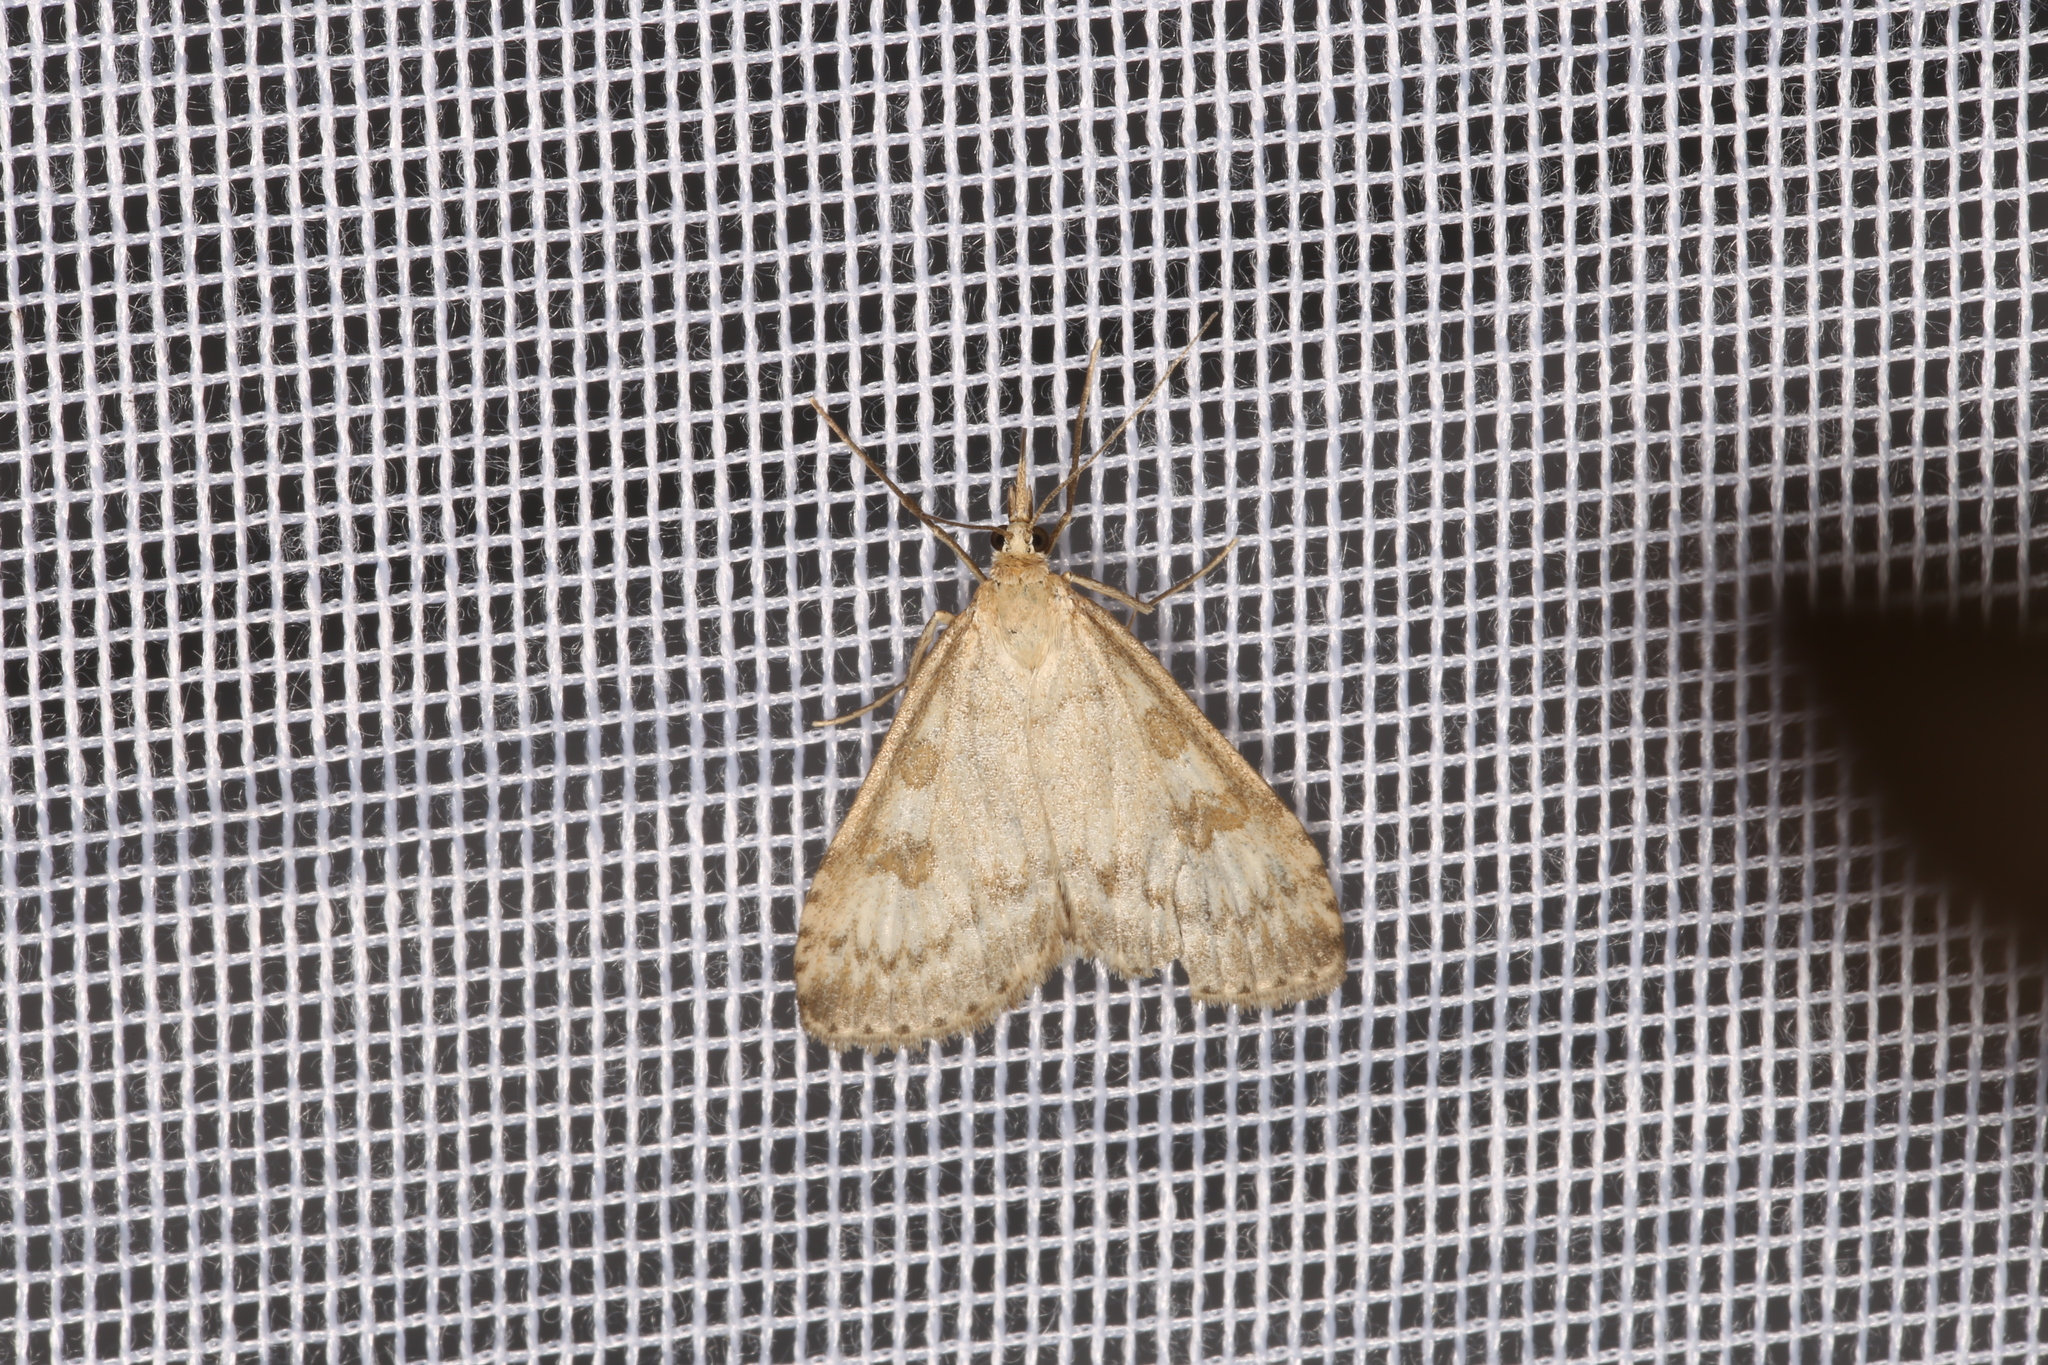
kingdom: Animalia
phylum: Arthropoda
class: Insecta
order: Lepidoptera
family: Crambidae
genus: Udea
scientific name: Udea decrepitalis
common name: Scotch pearl
